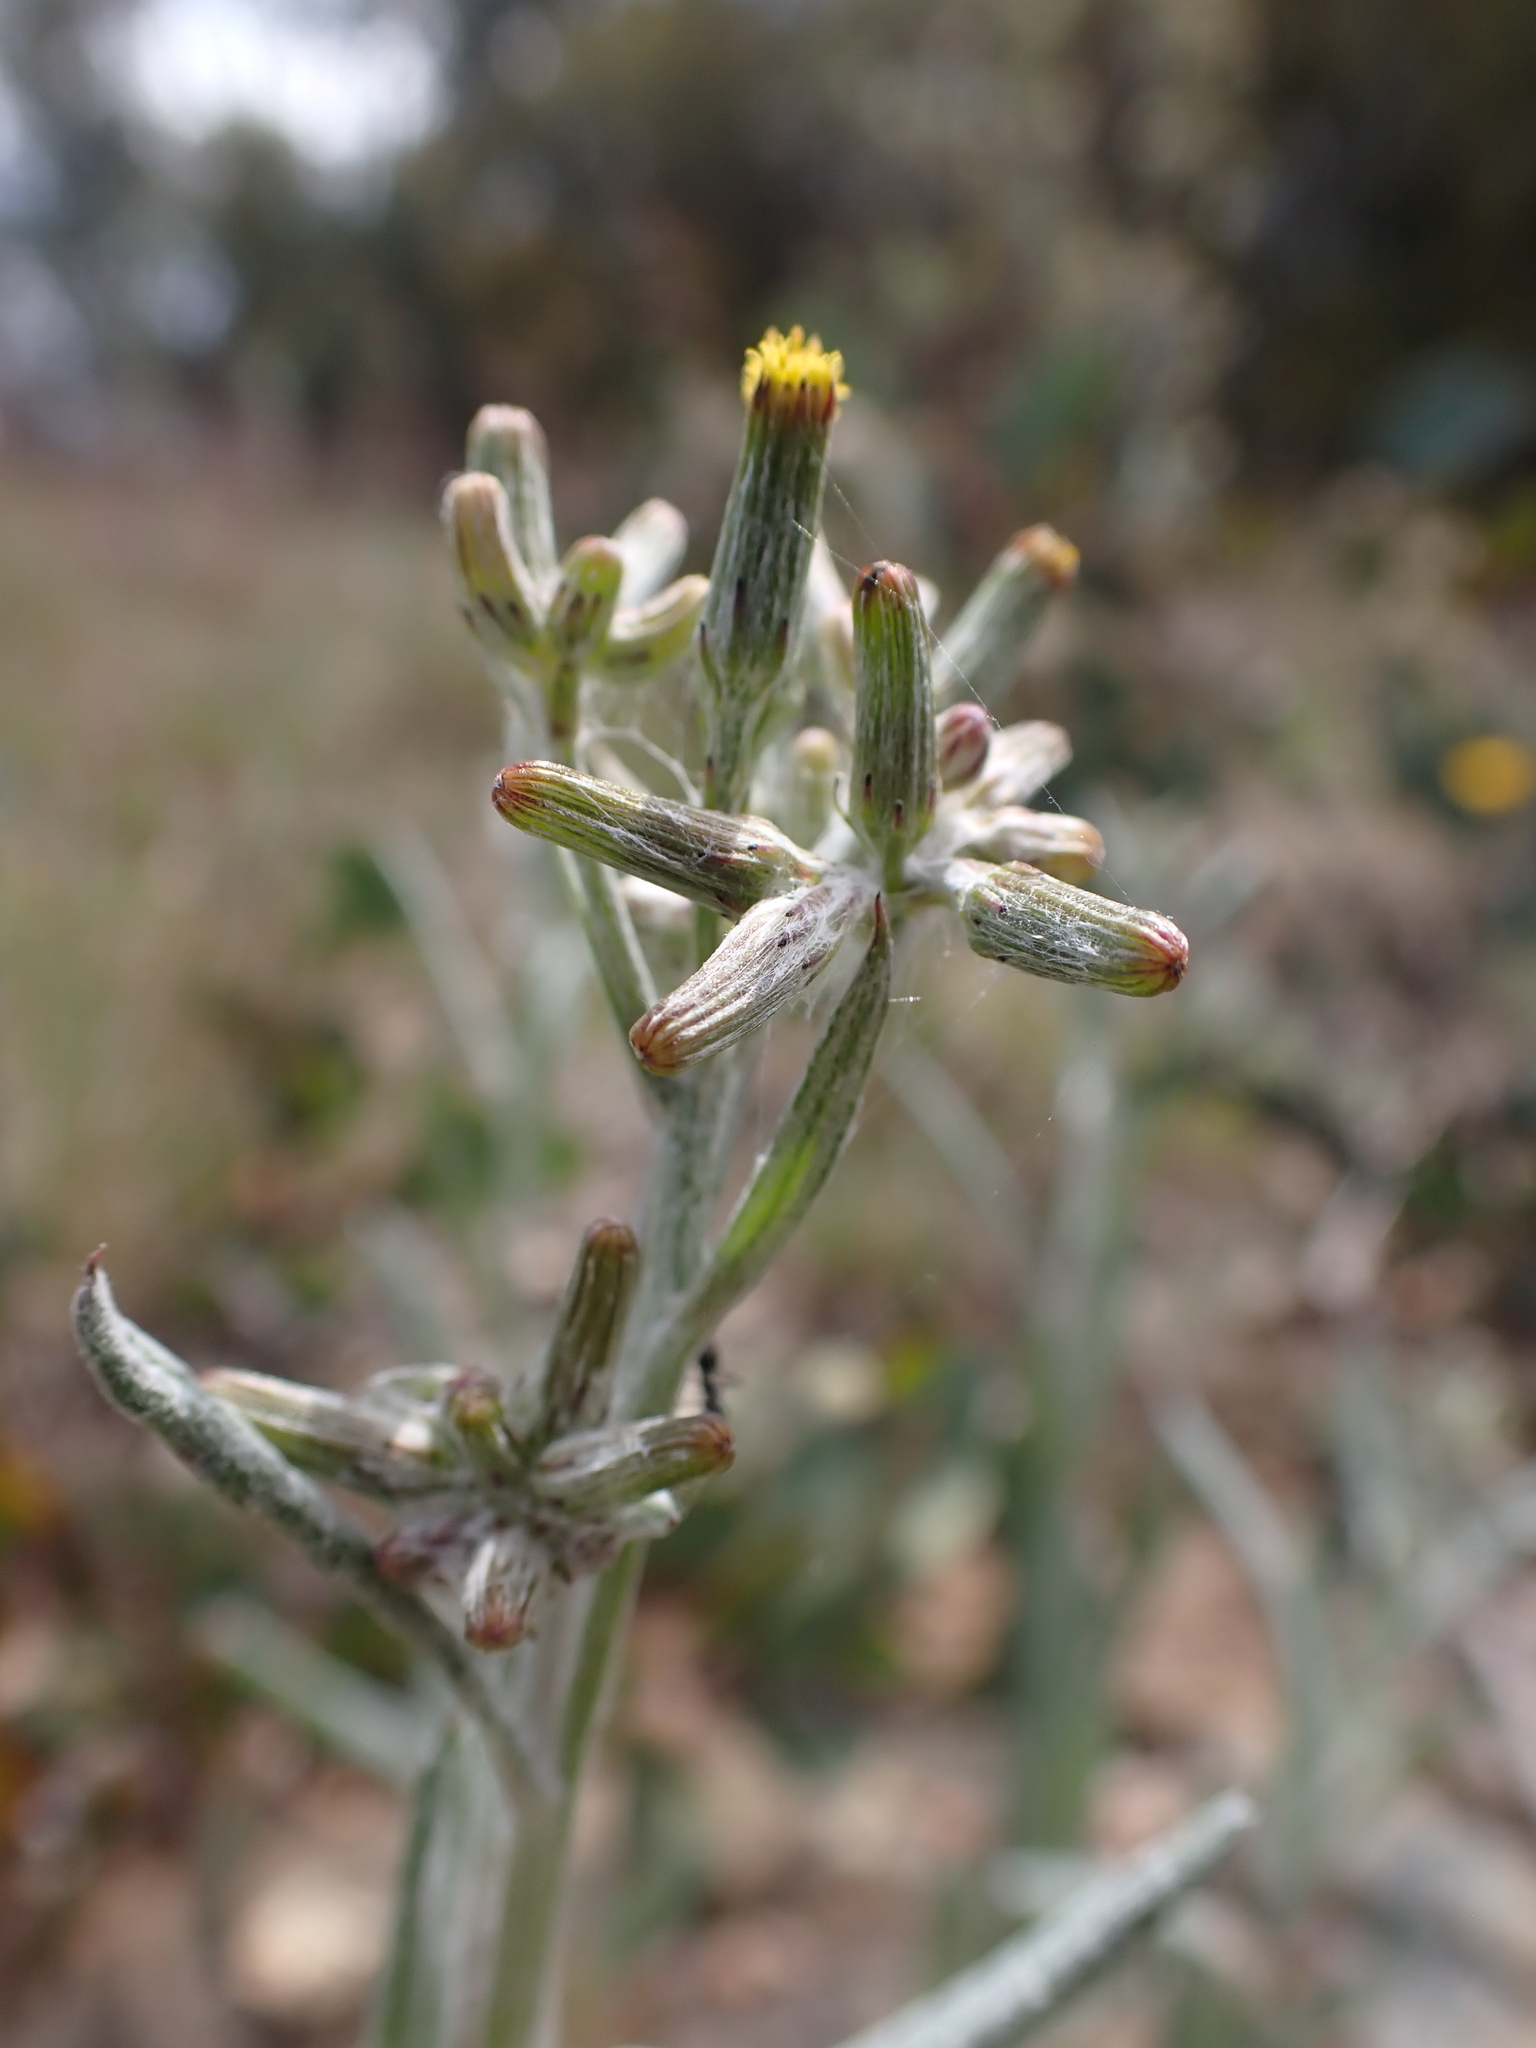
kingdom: Plantae
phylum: Tracheophyta
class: Magnoliopsida
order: Asterales
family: Asteraceae
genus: Senecio
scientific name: Senecio gunnii
